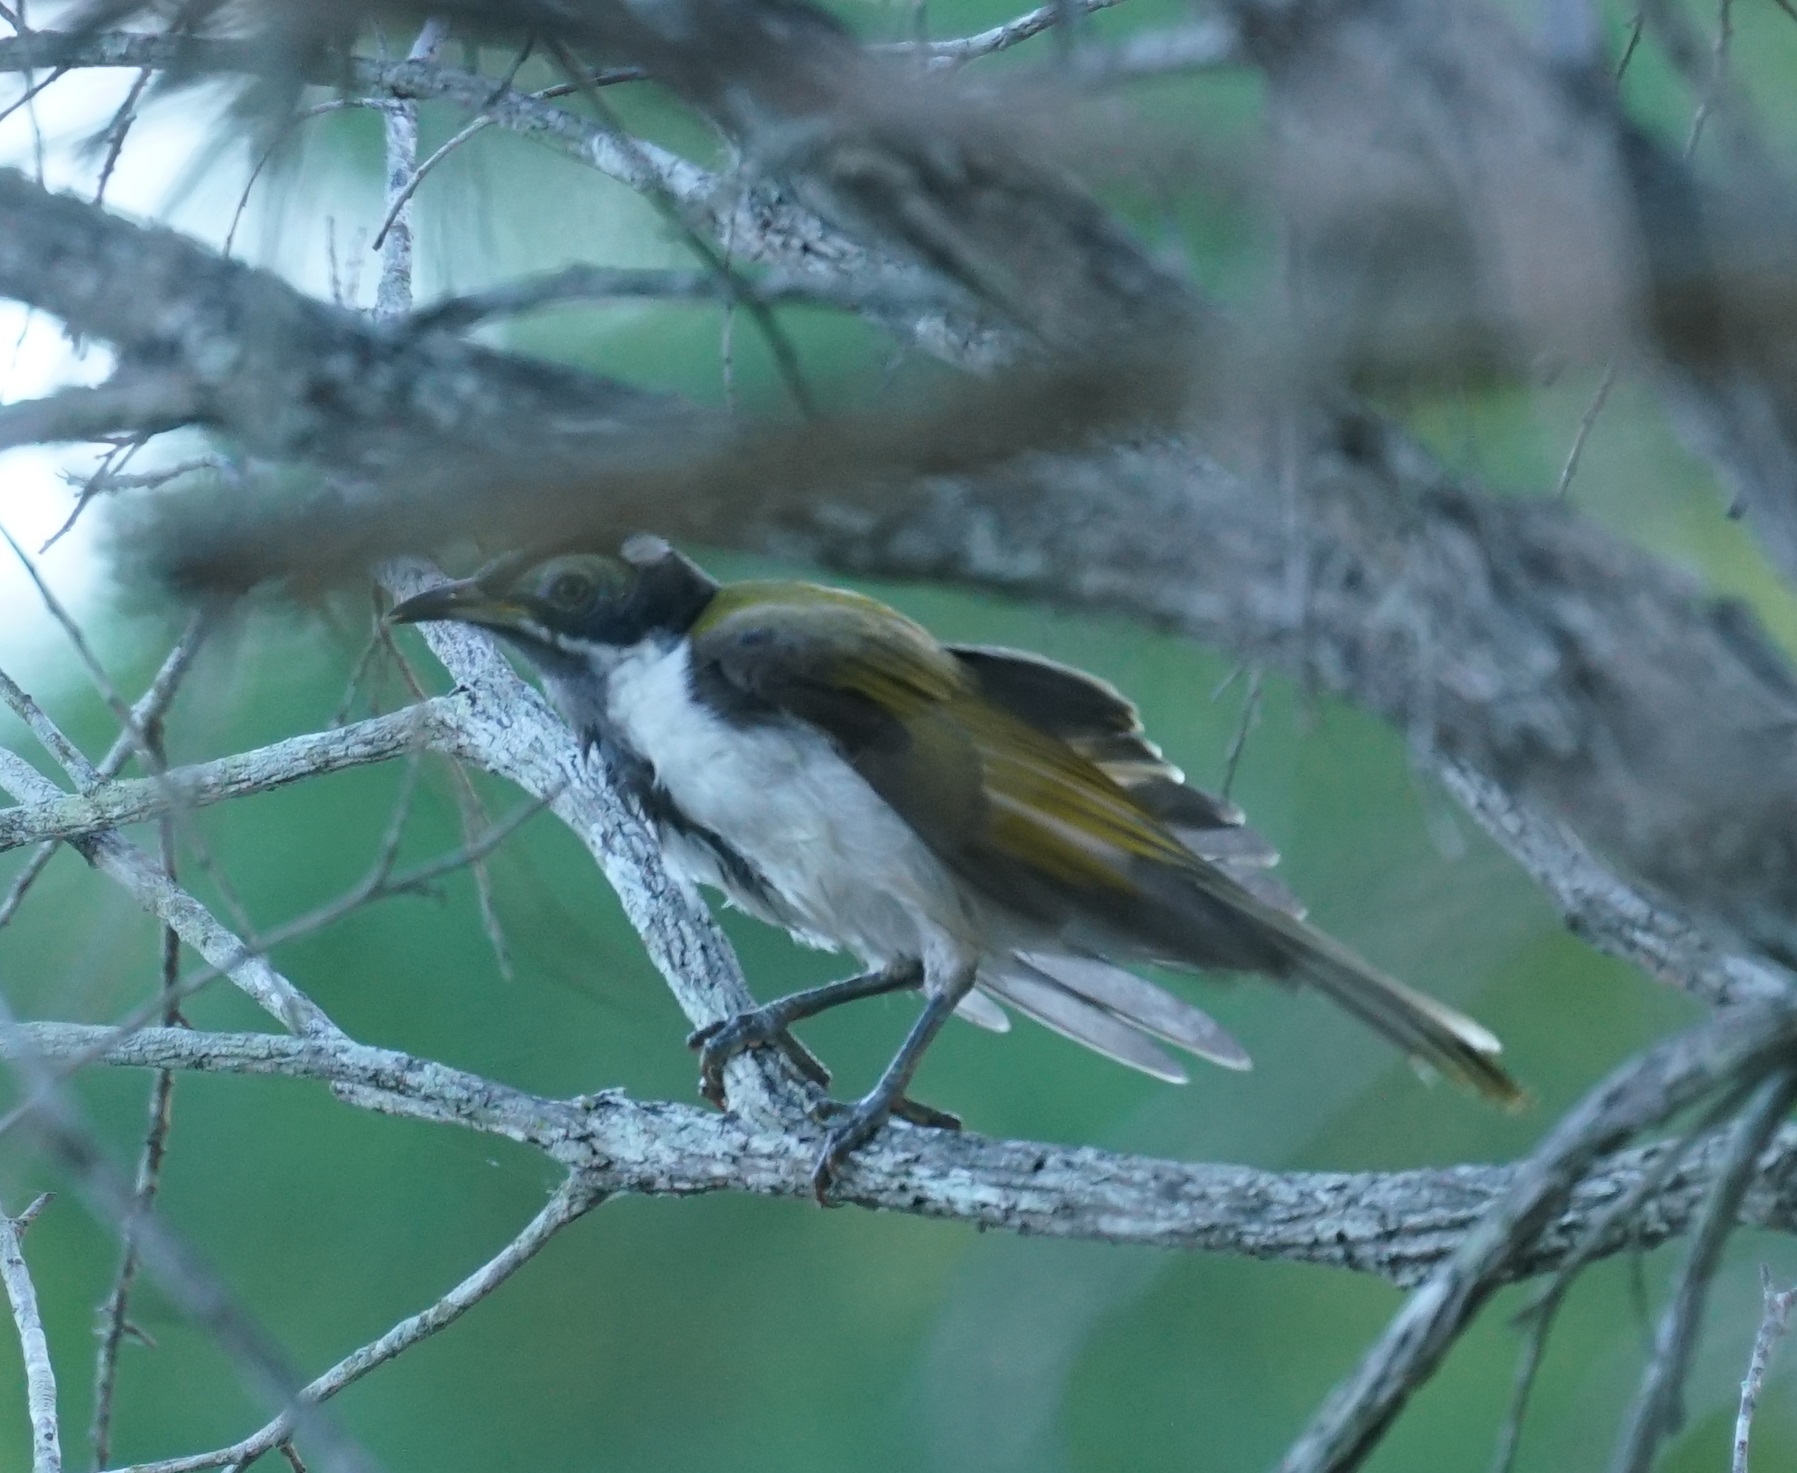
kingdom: Animalia
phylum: Chordata
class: Aves
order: Passeriformes
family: Meliphagidae
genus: Entomyzon
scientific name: Entomyzon cyanotis
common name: Blue-faced honeyeater
